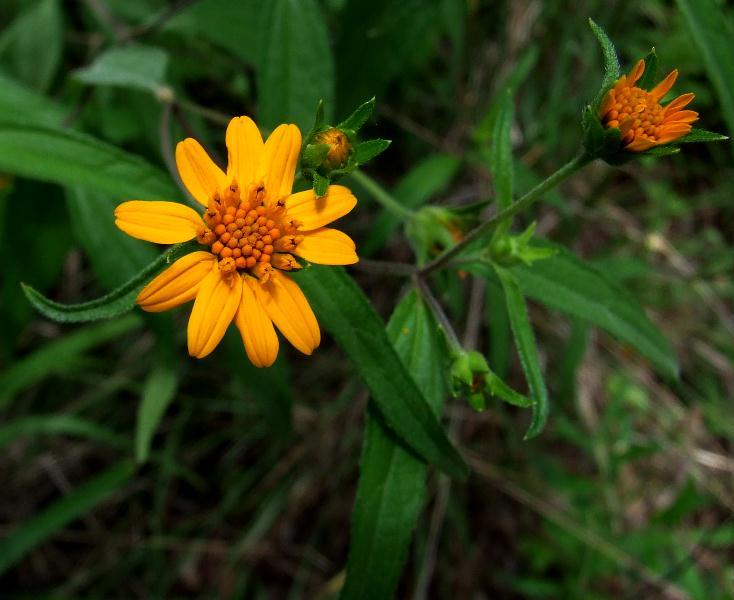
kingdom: Plantae
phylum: Tracheophyta
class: Magnoliopsida
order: Asterales
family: Asteraceae
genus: Aspilia
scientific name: Aspilia mossambicensis
